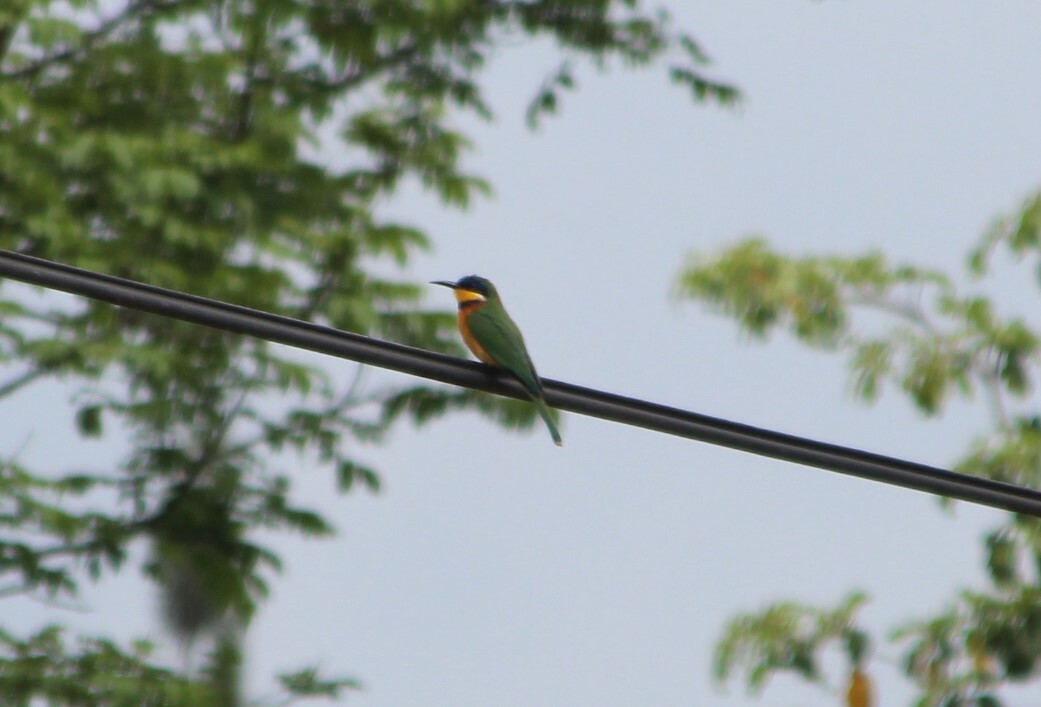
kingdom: Animalia
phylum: Chordata
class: Aves
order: Coraciiformes
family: Meropidae
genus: Merops
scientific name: Merops lafresnayii
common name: Ethiopian bee-eater
